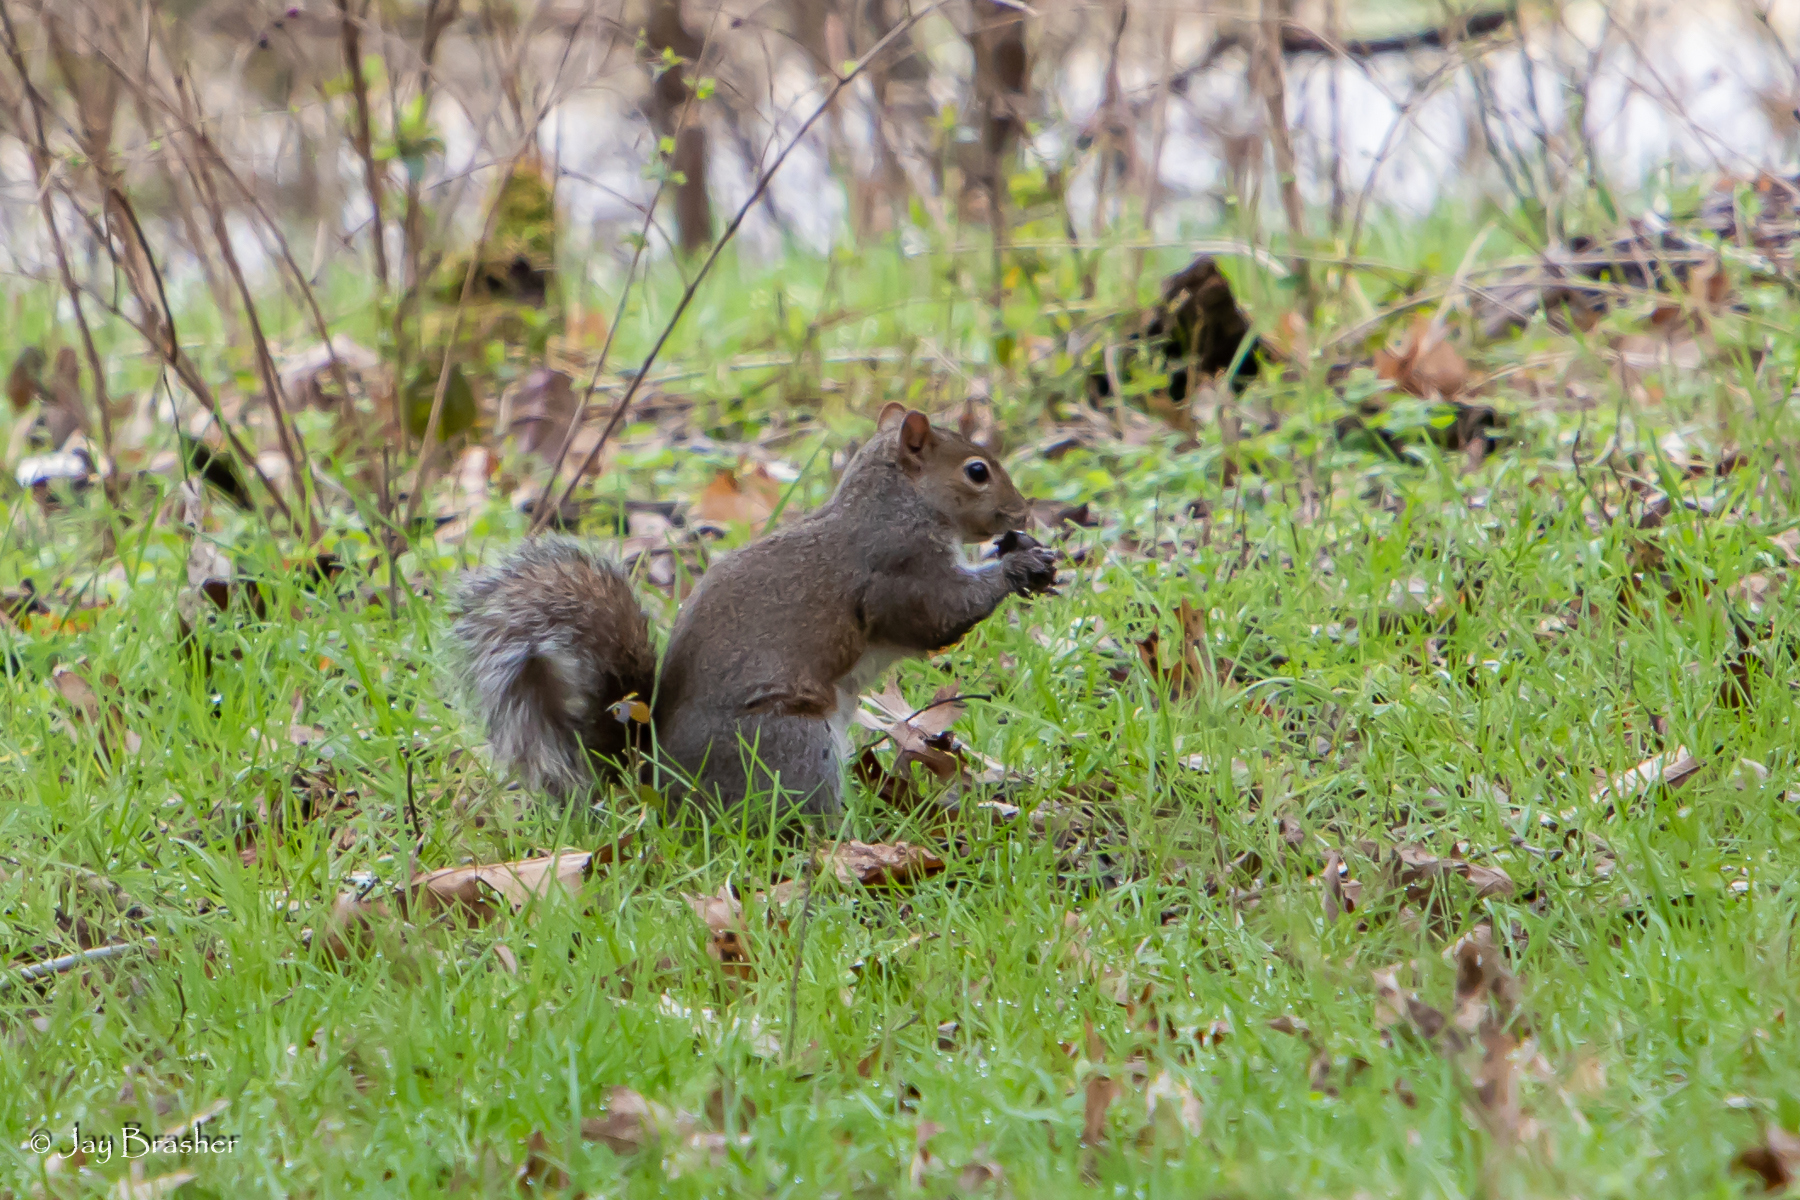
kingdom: Animalia
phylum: Chordata
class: Mammalia
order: Rodentia
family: Sciuridae
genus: Sciurus
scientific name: Sciurus carolinensis
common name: Eastern gray squirrel
